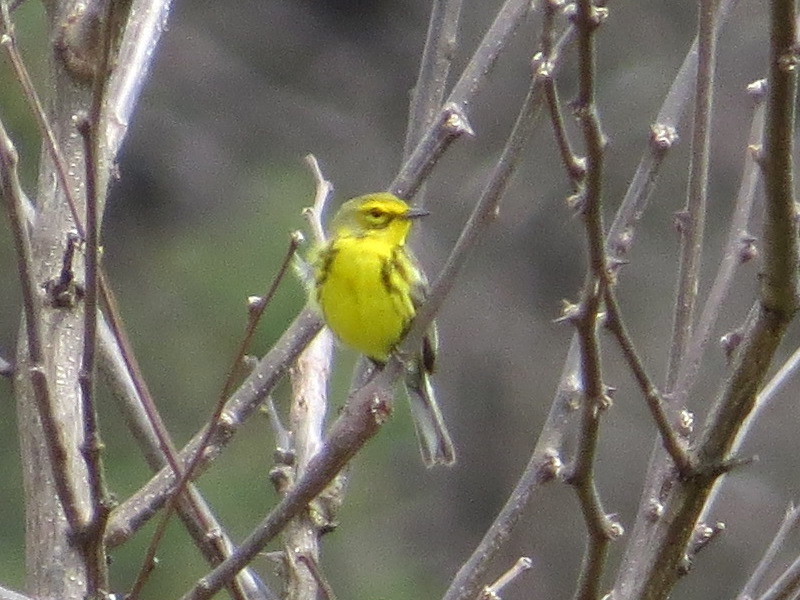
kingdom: Animalia
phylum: Chordata
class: Aves
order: Passeriformes
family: Parulidae
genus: Setophaga
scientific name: Setophaga discolor
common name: Prairie warbler
